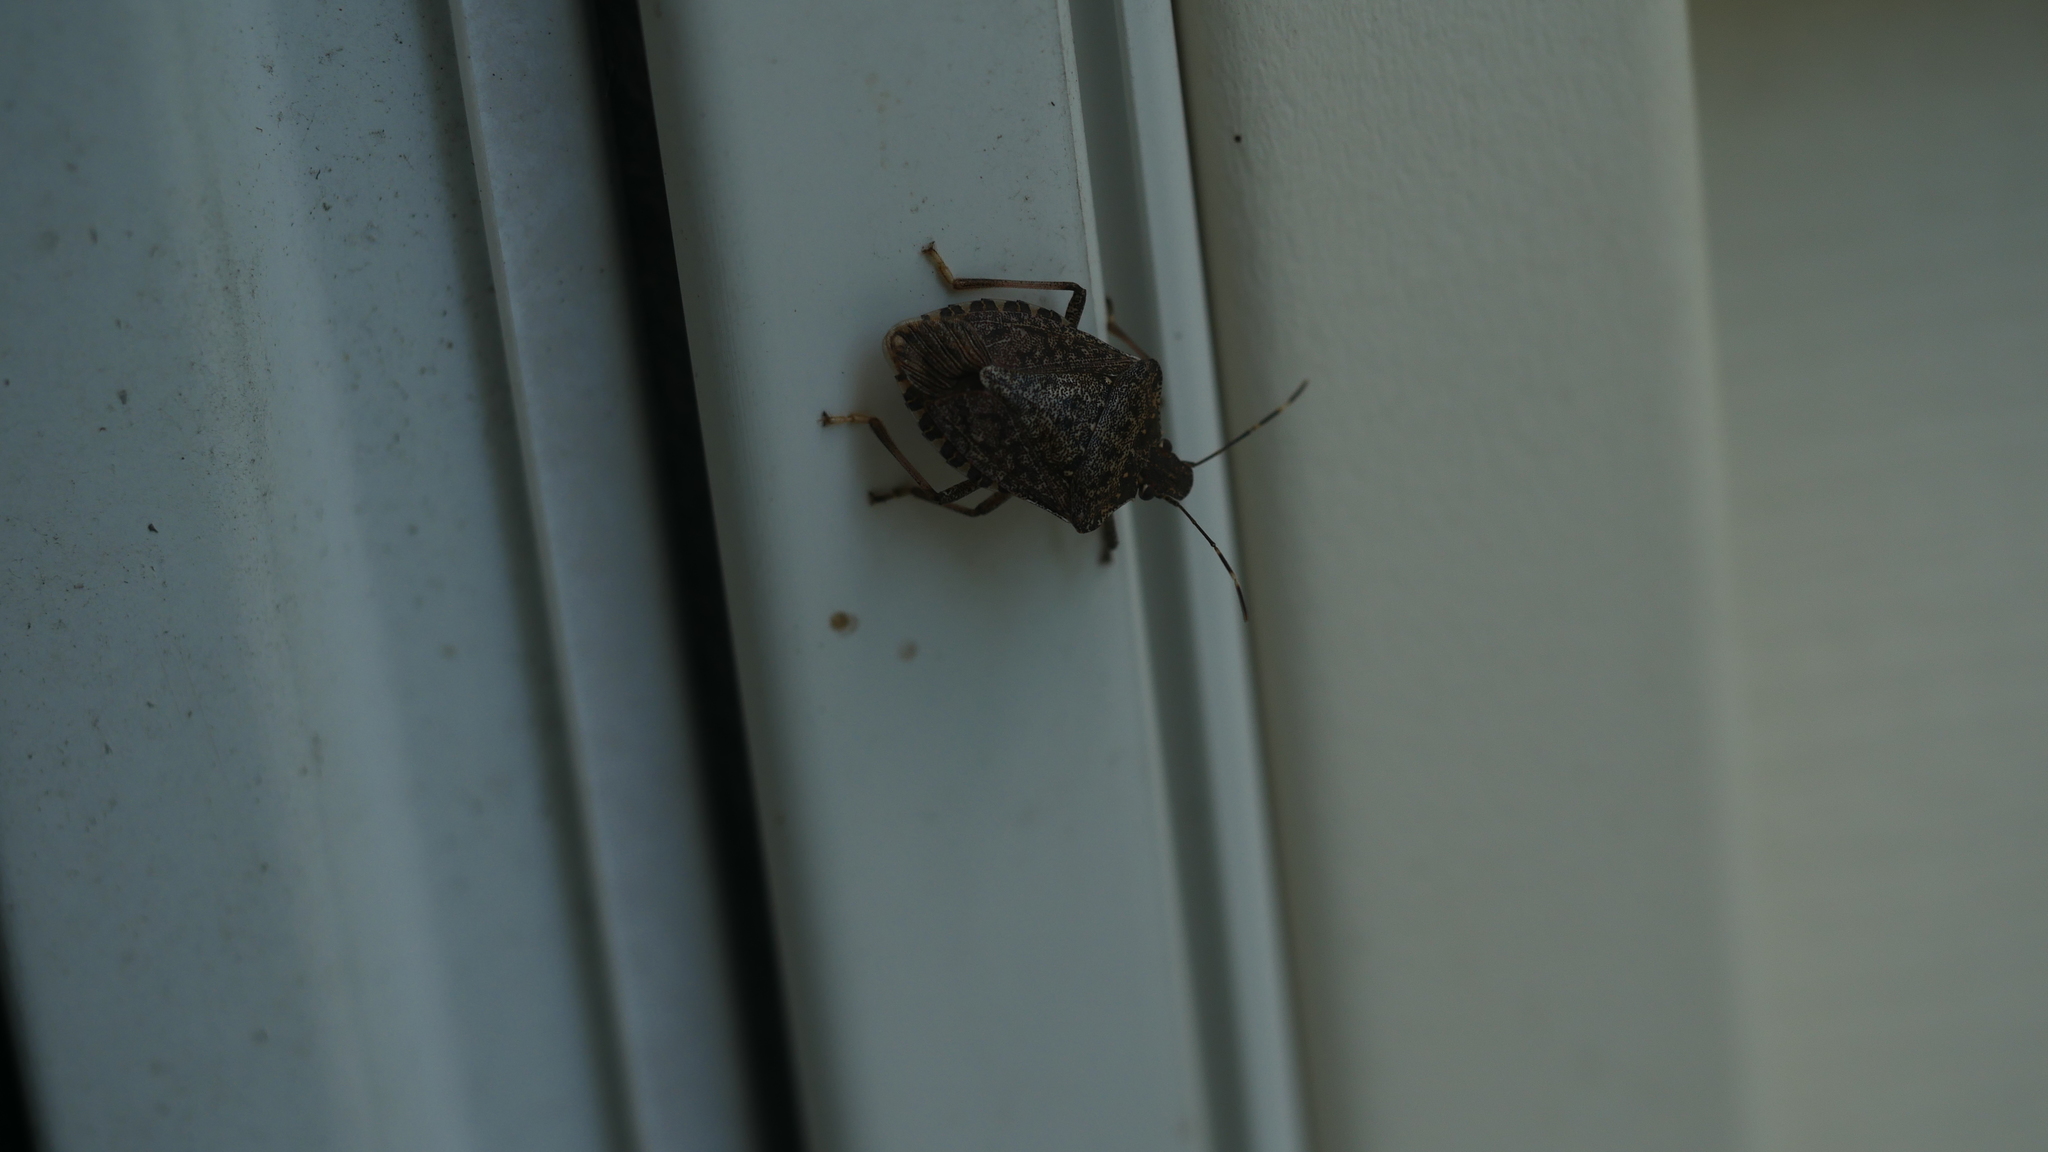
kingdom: Animalia
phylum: Arthropoda
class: Insecta
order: Hemiptera
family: Pentatomidae
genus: Halyomorpha
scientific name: Halyomorpha halys
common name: Brown marmorated stink bug
